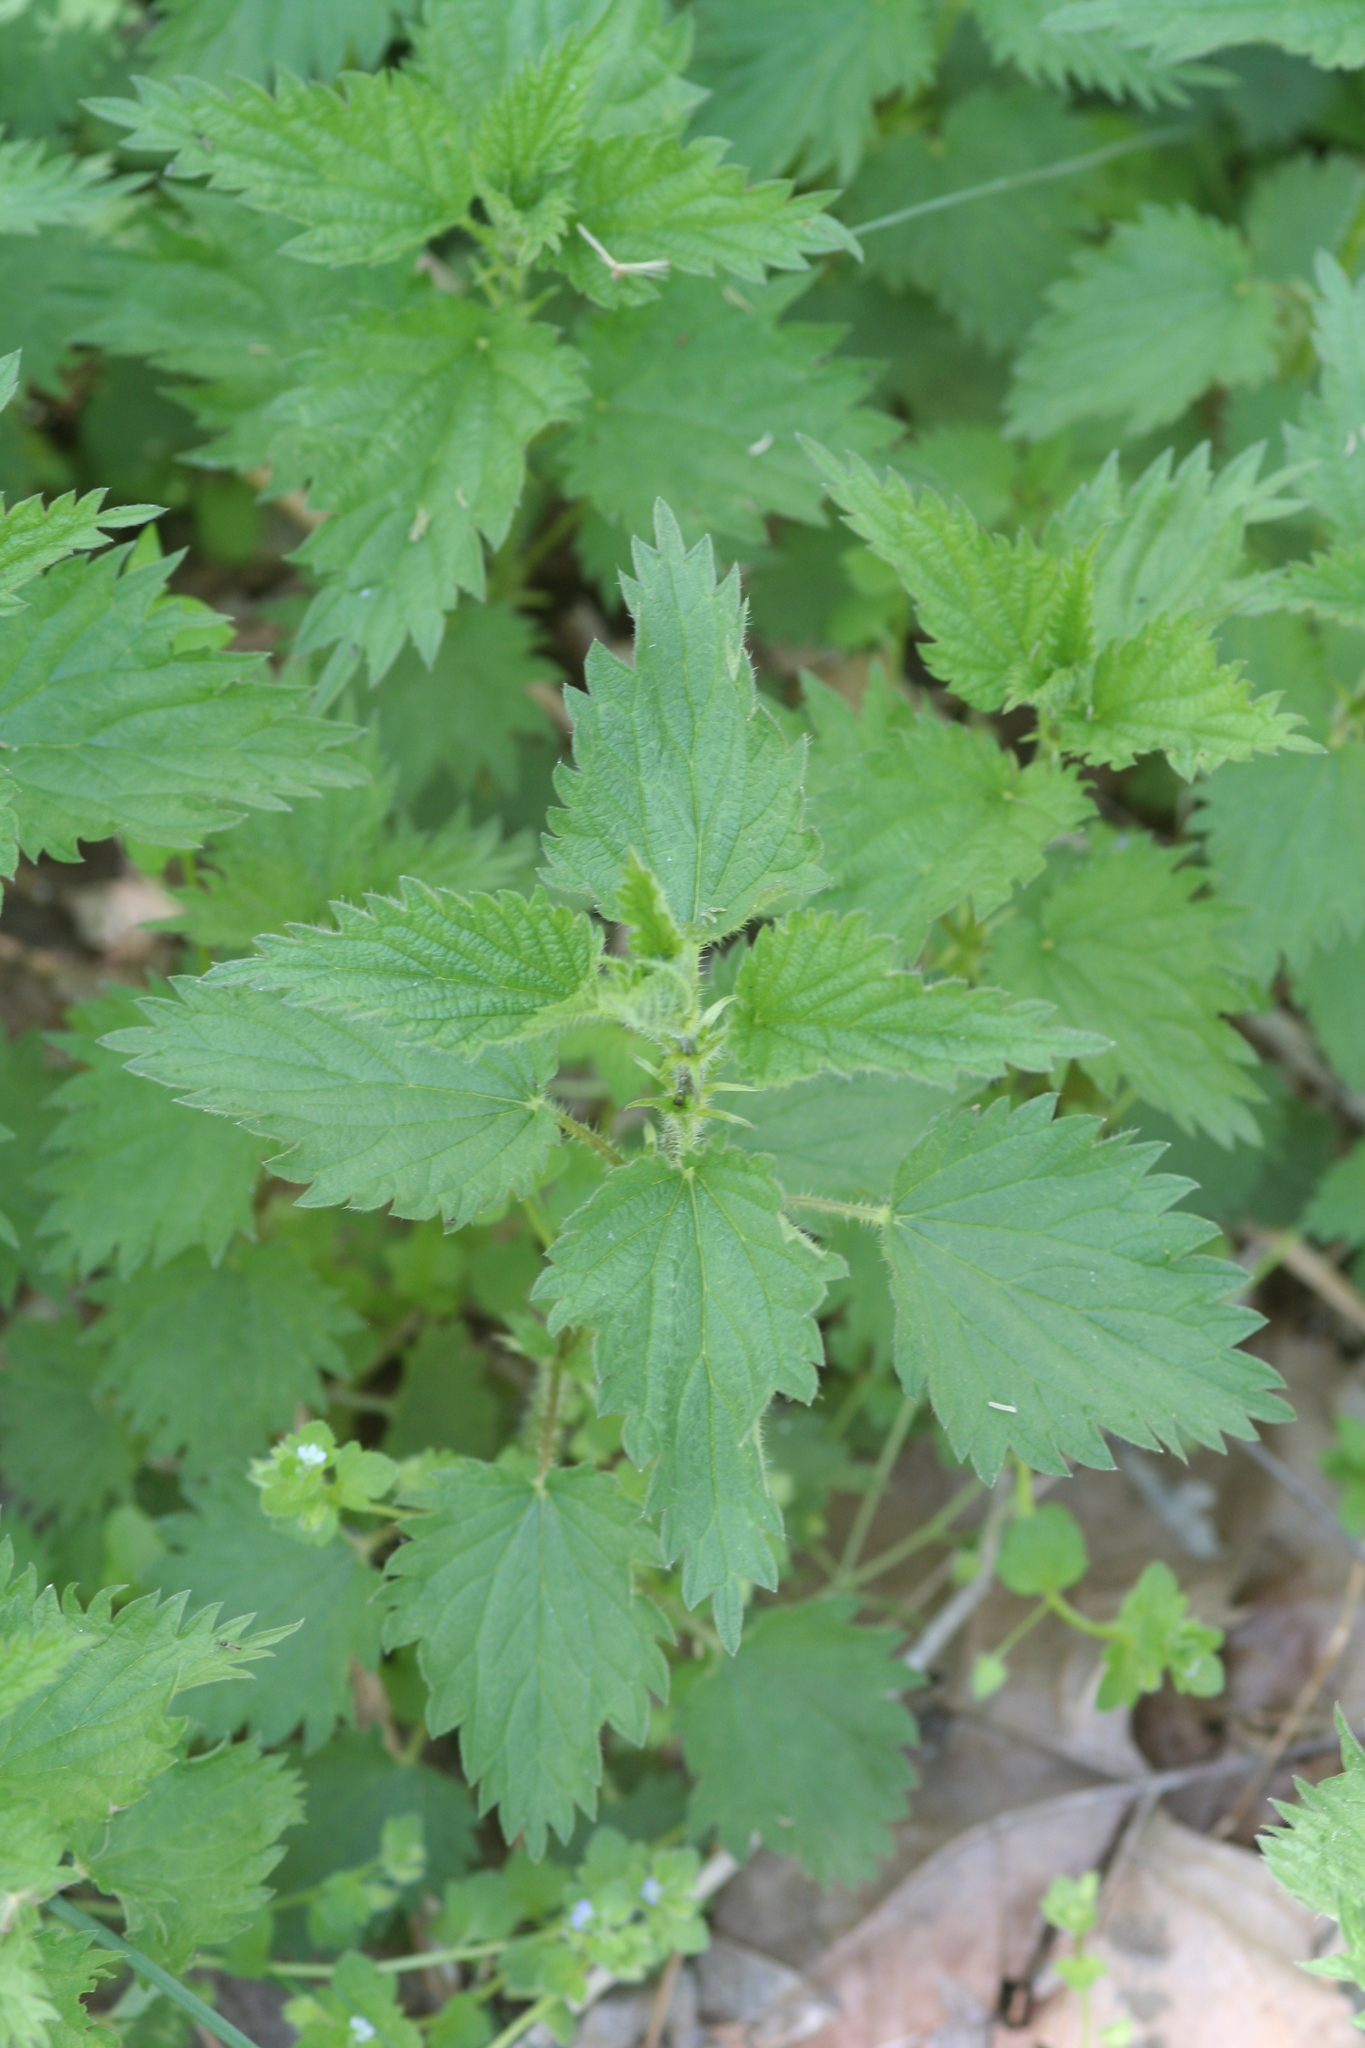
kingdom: Plantae
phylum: Tracheophyta
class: Magnoliopsida
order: Rosales
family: Urticaceae
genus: Urtica
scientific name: Urtica dioica
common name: Common nettle
